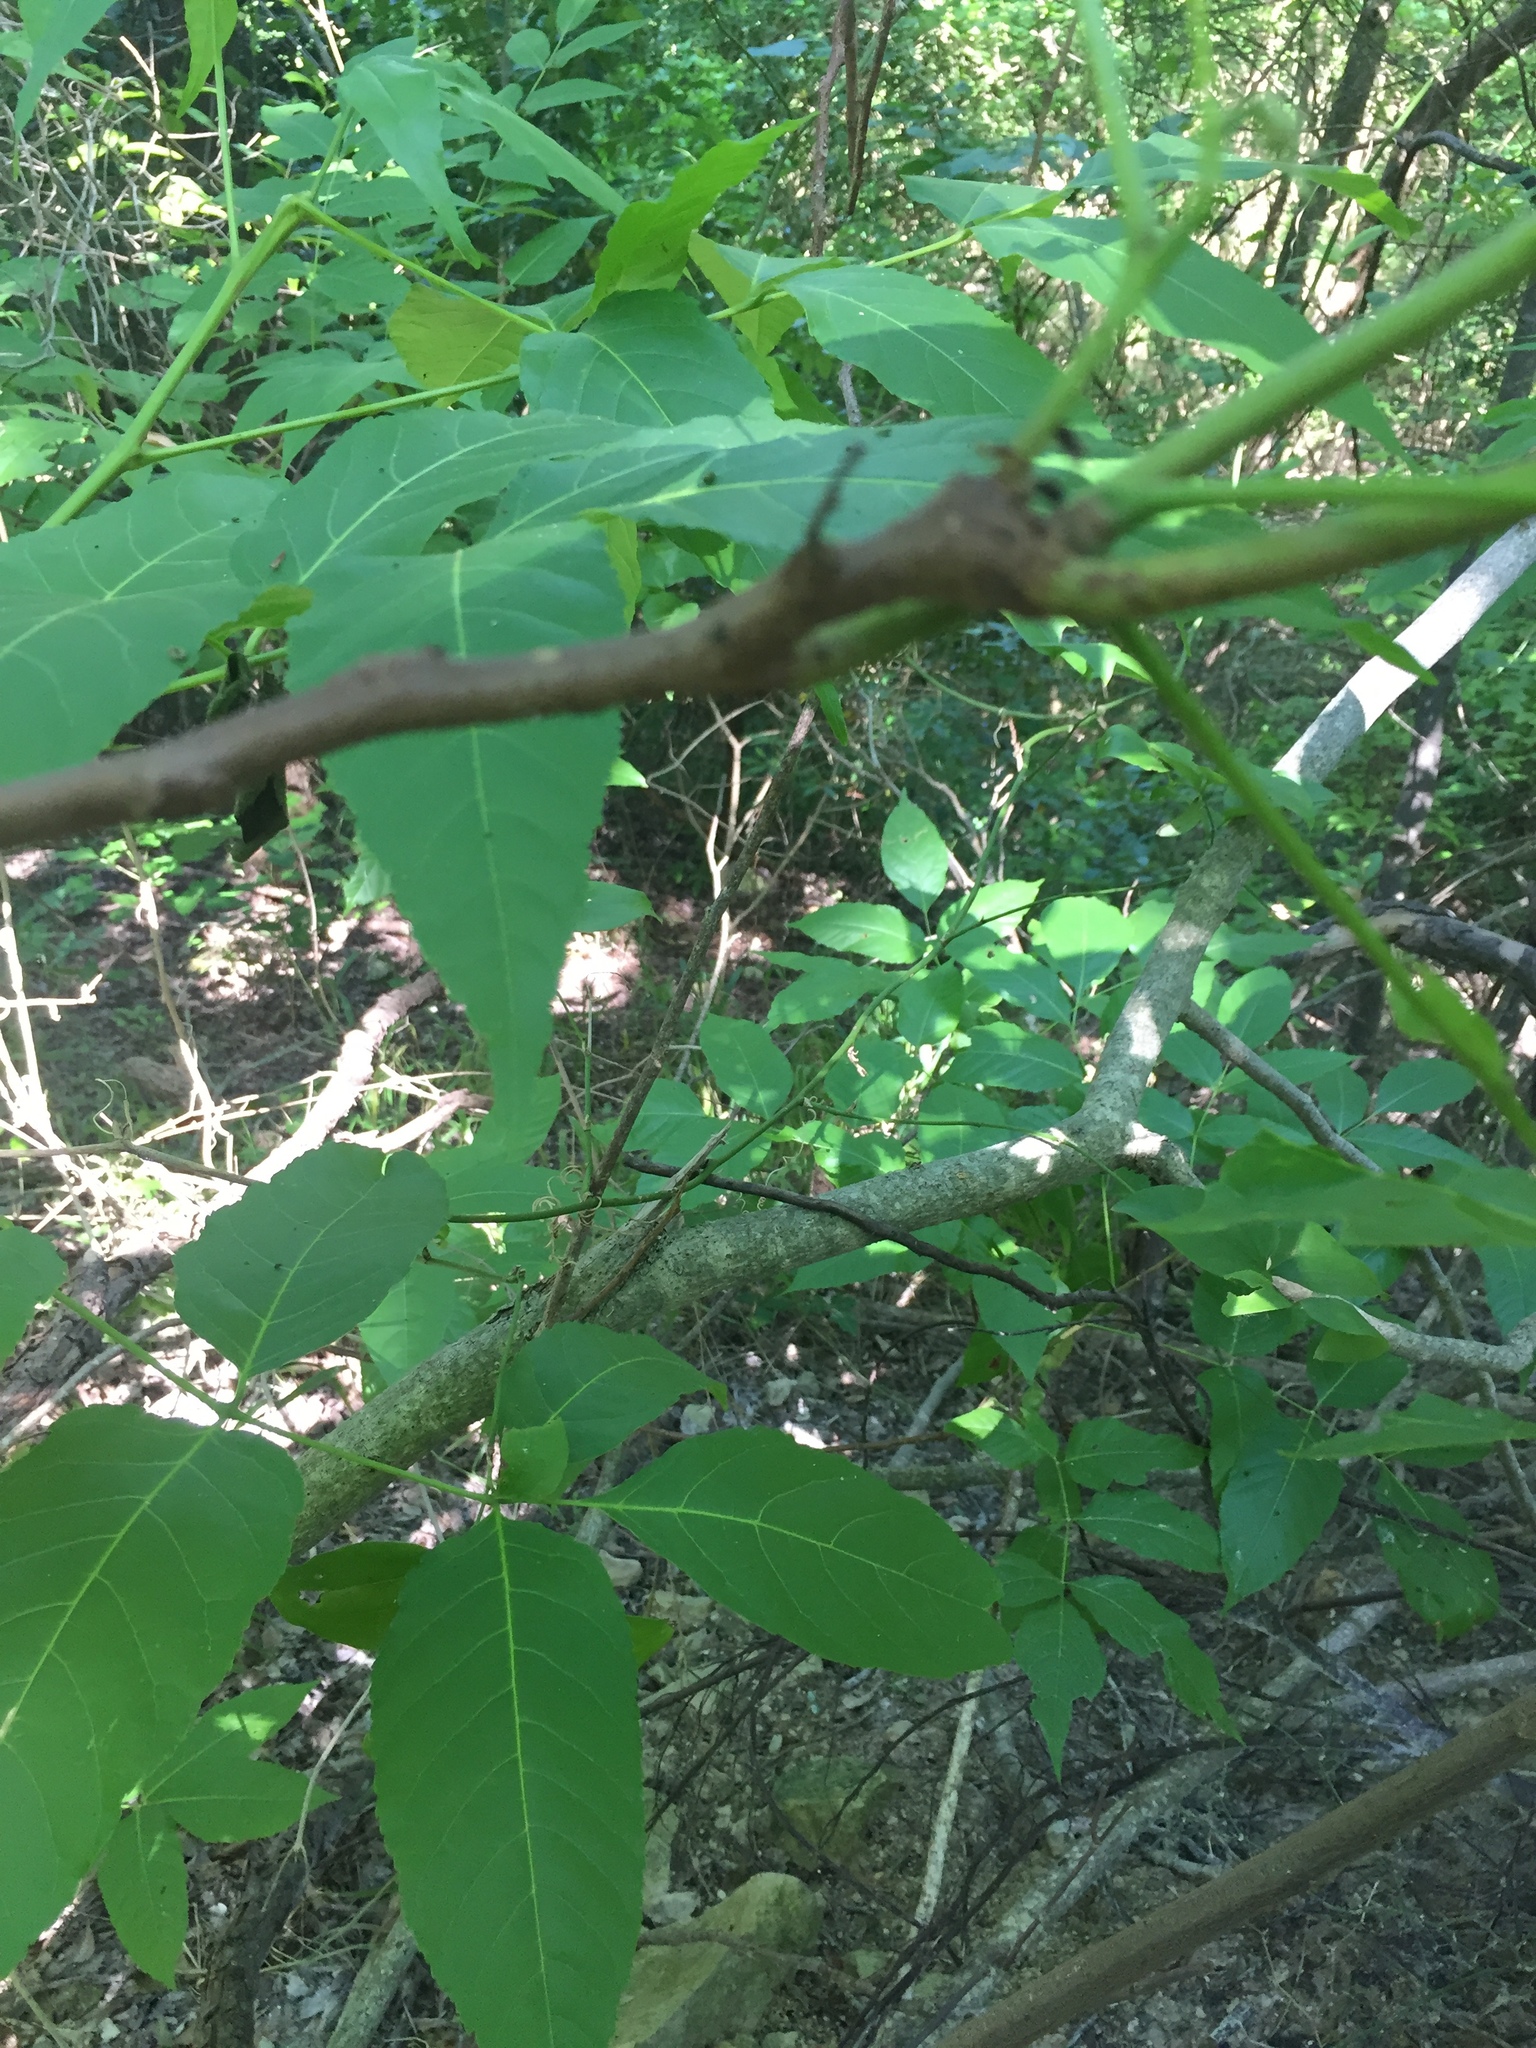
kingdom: Plantae
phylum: Tracheophyta
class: Magnoliopsida
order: Sapindales
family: Sapindaceae
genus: Ungnadia
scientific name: Ungnadia speciosa
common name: Texas-buckeye
